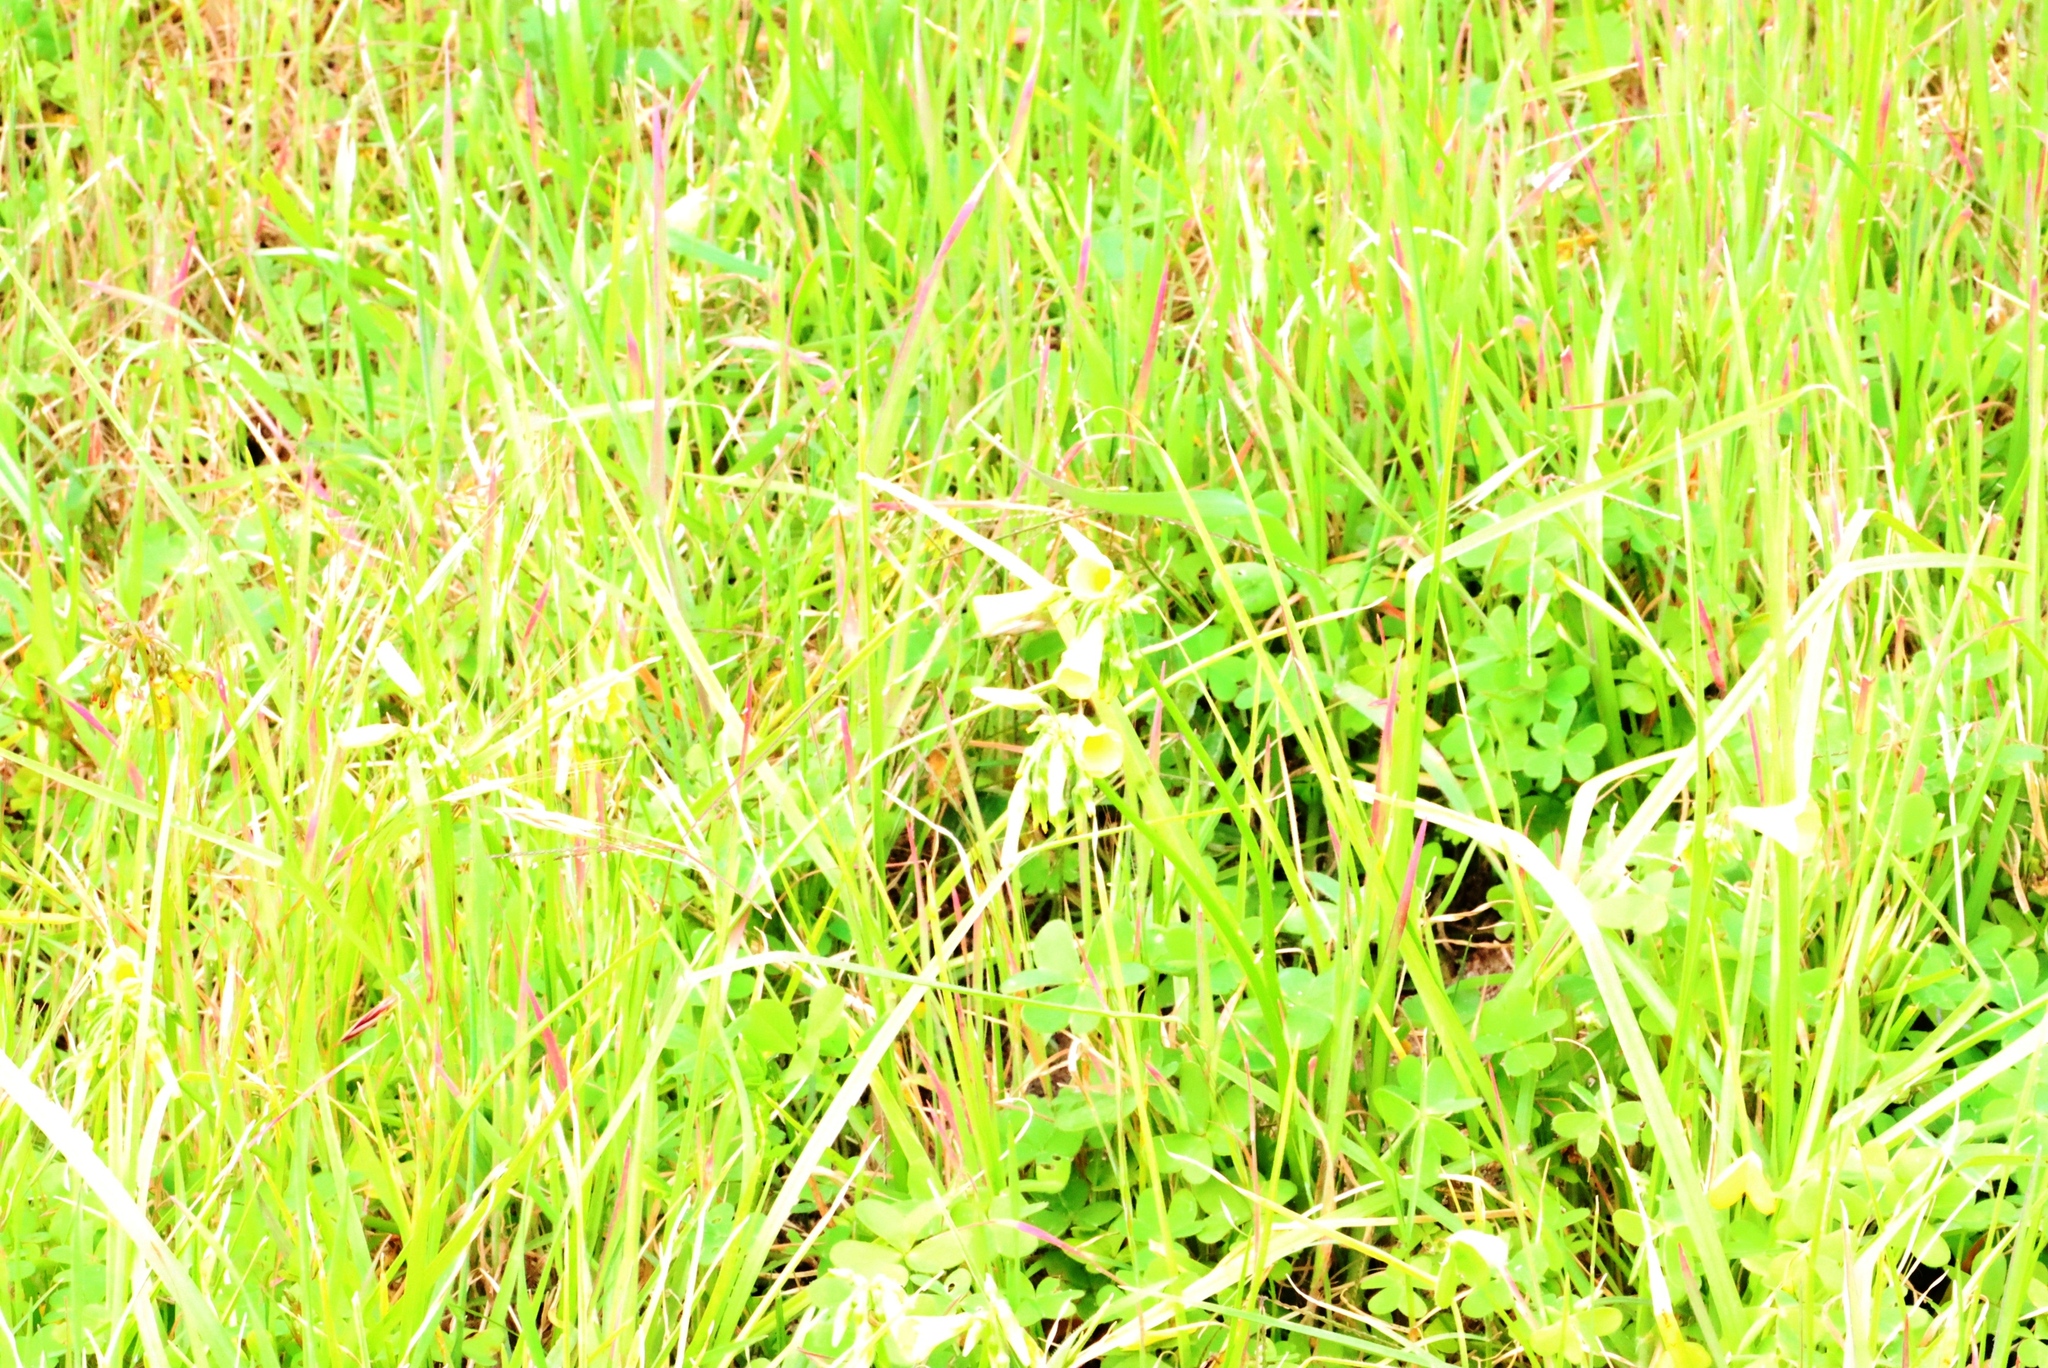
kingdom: Plantae
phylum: Tracheophyta
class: Magnoliopsida
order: Oxalidales
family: Oxalidaceae
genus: Oxalis
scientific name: Oxalis pes-caprae
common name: Bermuda-buttercup
